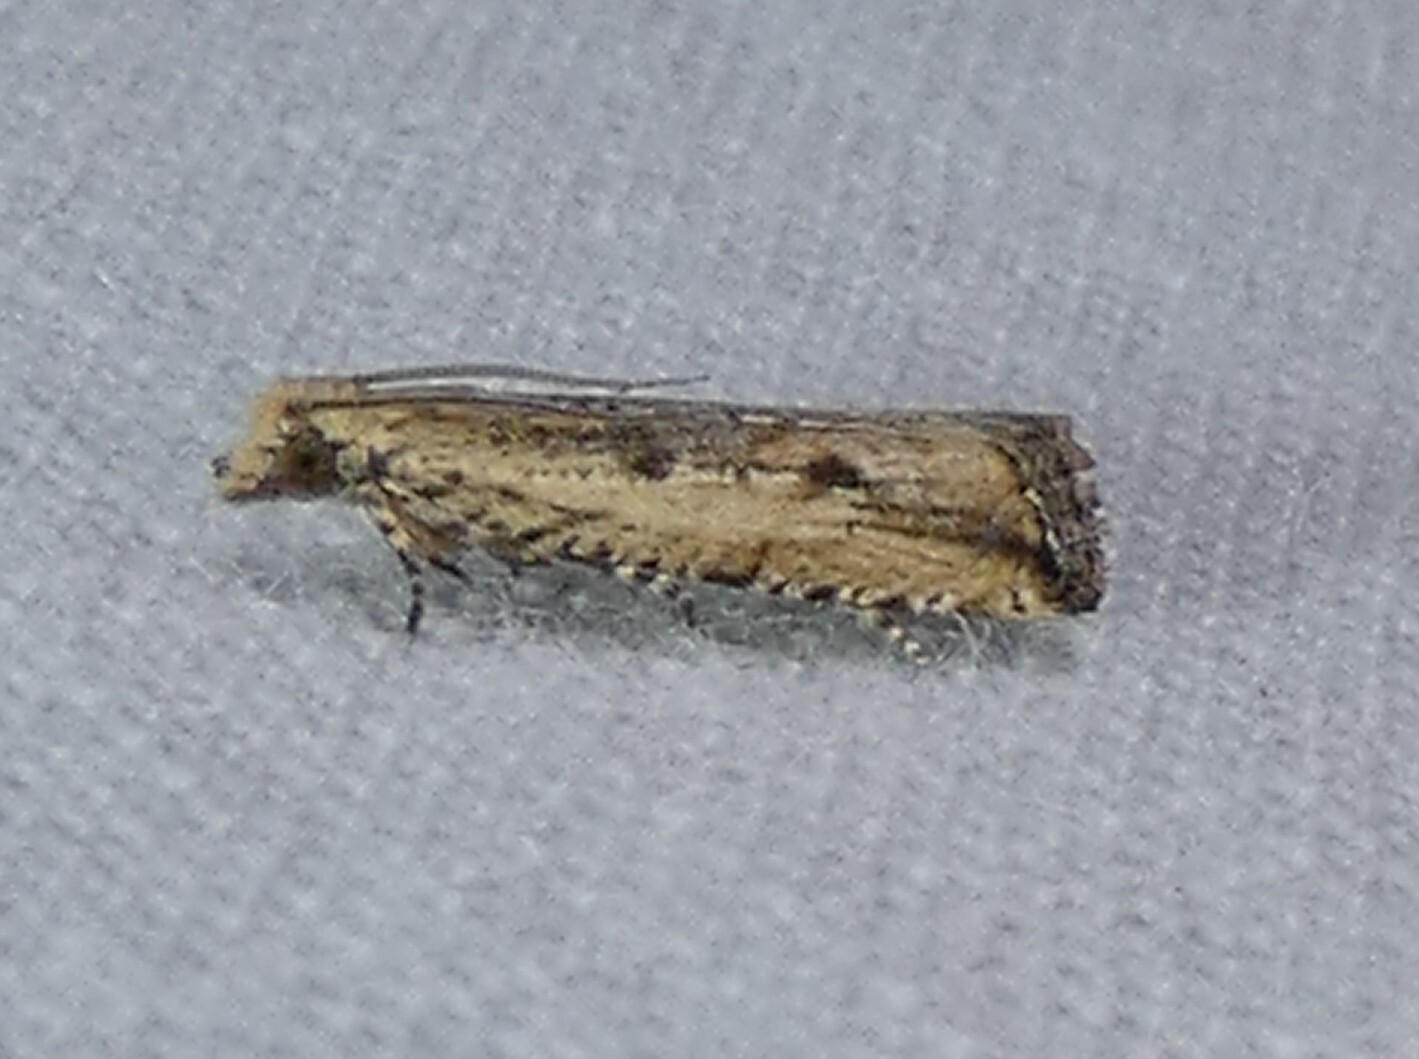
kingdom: Animalia
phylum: Arthropoda
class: Insecta
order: Lepidoptera
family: Tortricidae
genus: Bactra
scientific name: Bactra verutana
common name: Javelin moth
